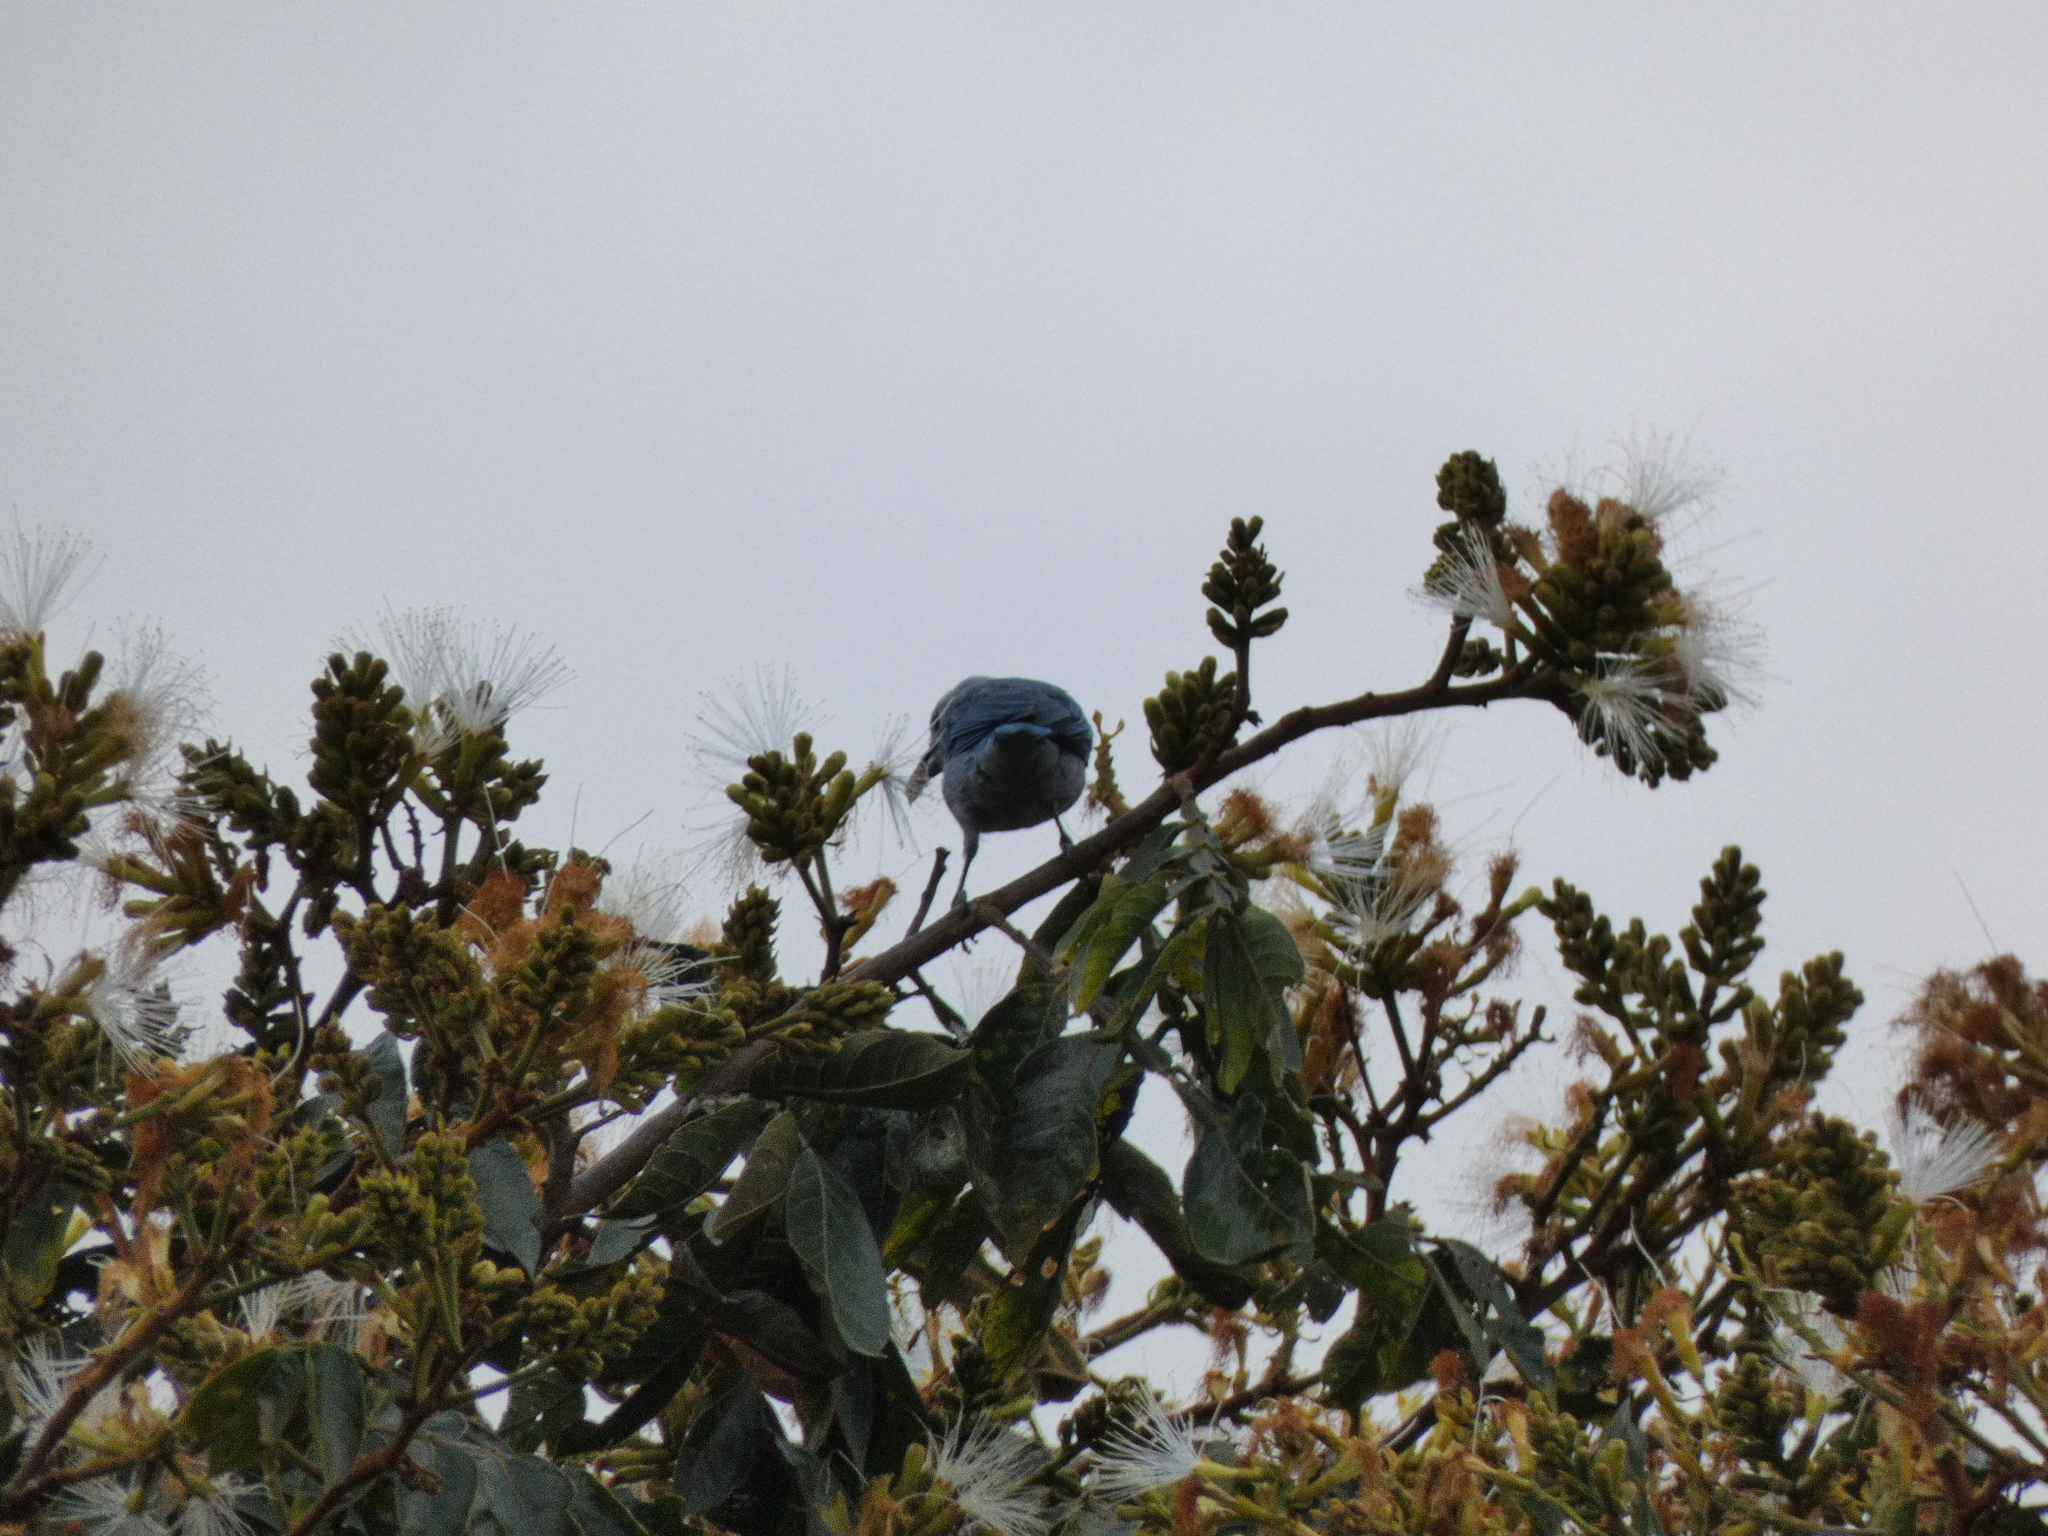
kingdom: Animalia
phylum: Chordata
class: Aves
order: Passeriformes
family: Thraupidae
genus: Thraupis
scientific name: Thraupis episcopus
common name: Blue-grey tanager
